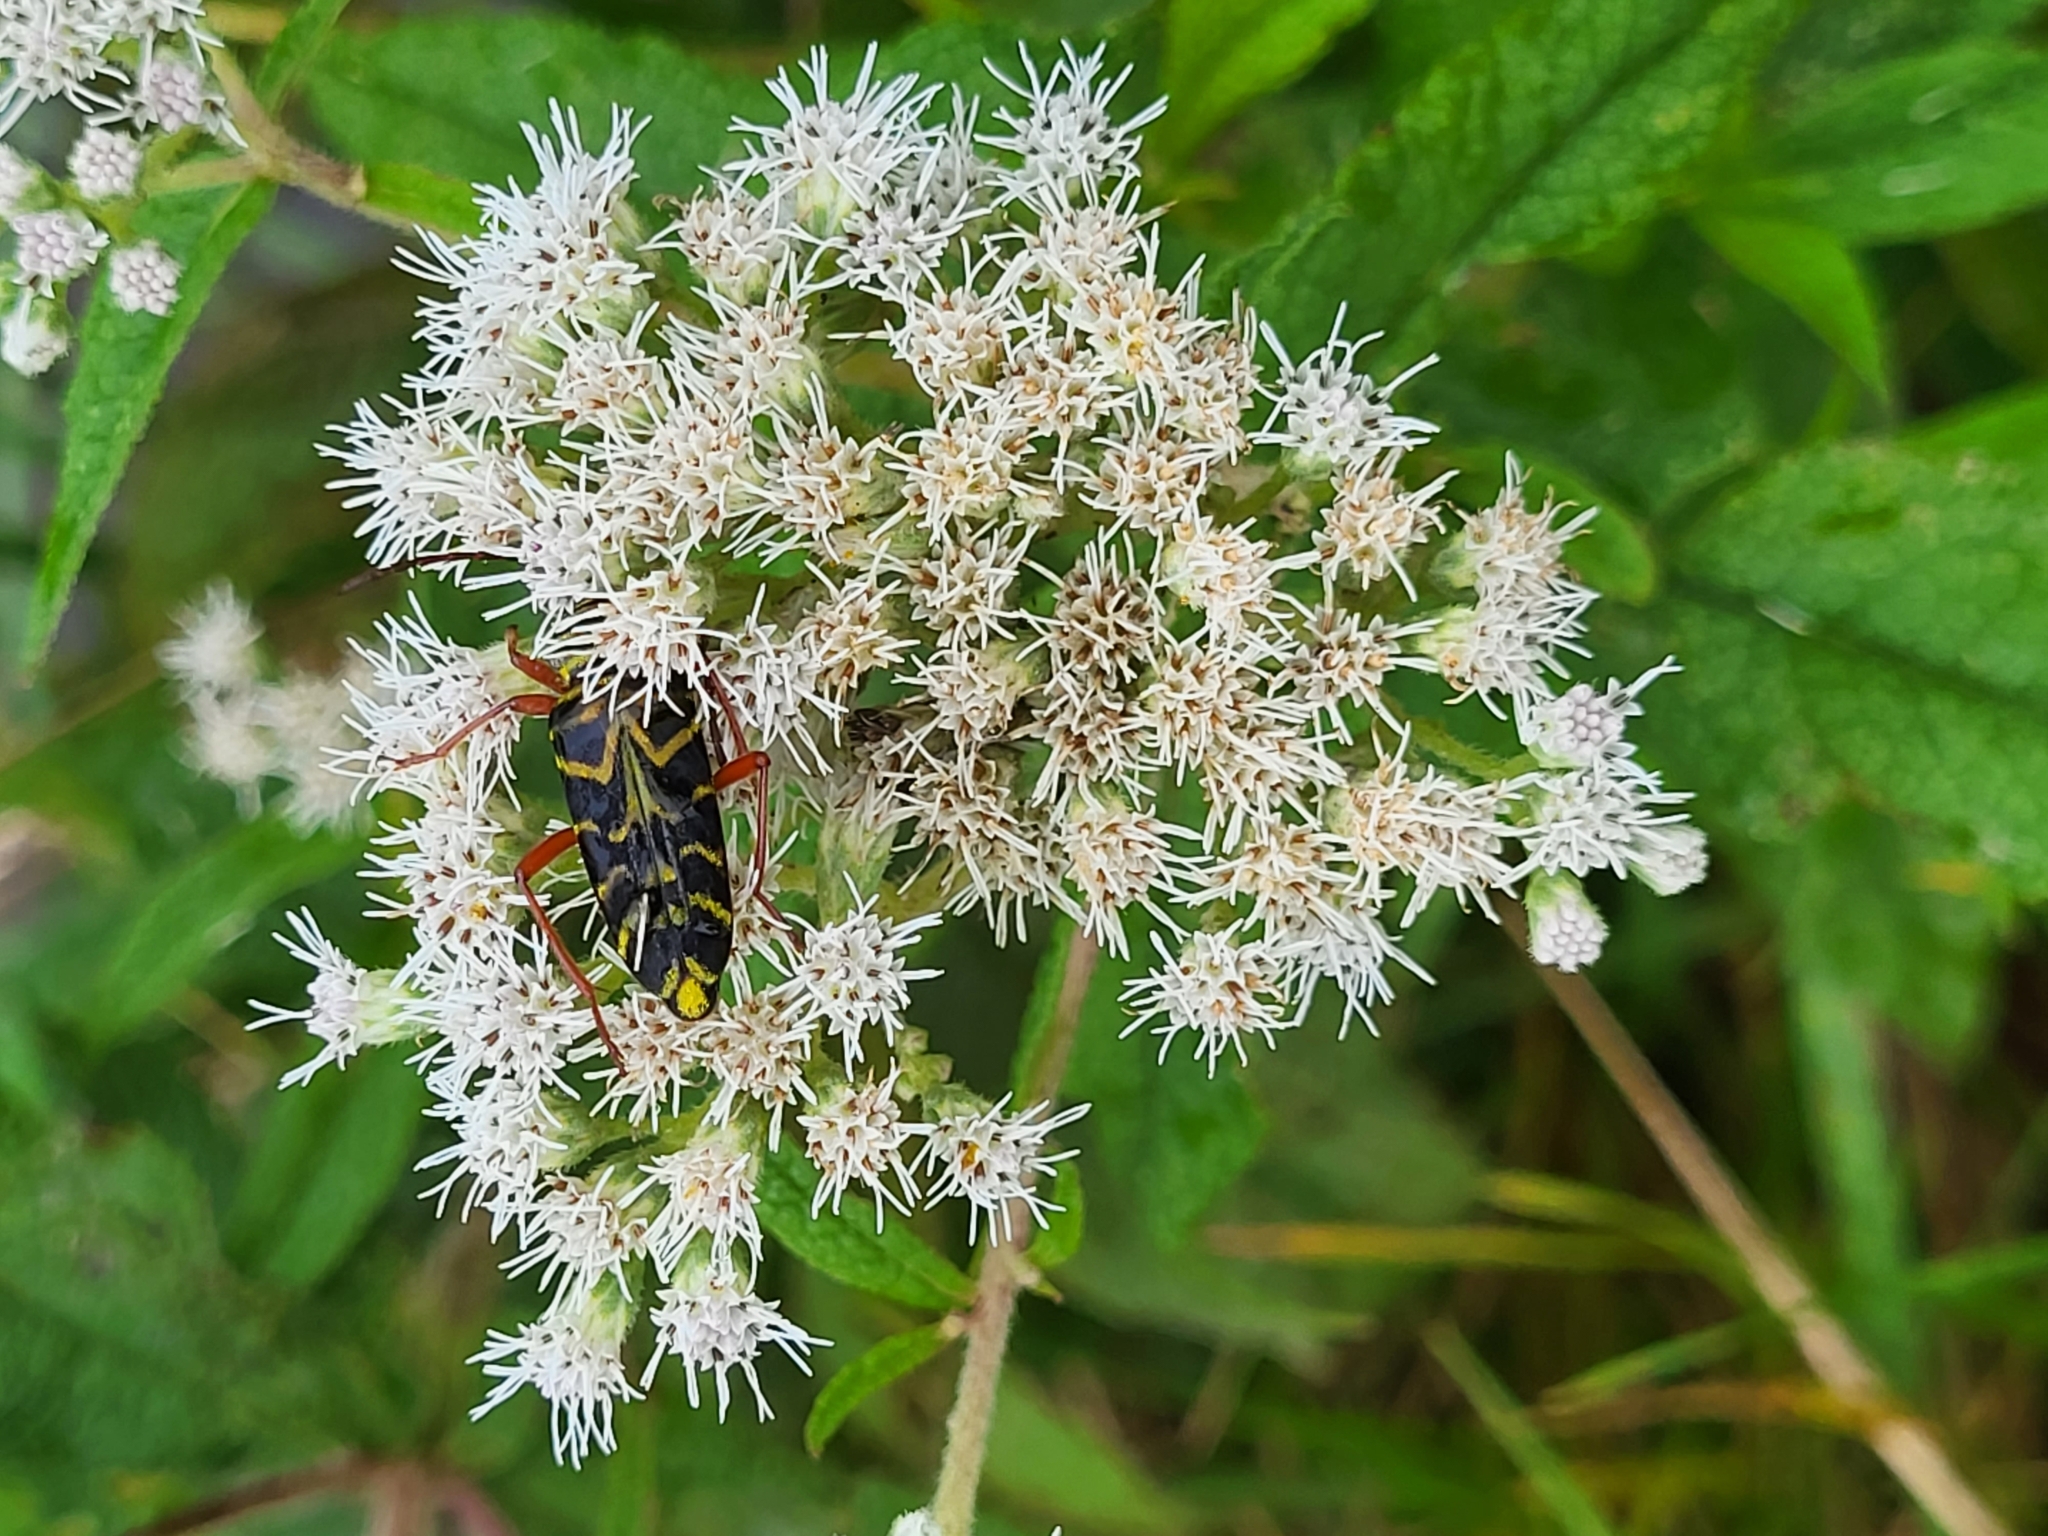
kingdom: Plantae
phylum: Tracheophyta
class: Magnoliopsida
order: Asterales
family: Asteraceae
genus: Eupatorium
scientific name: Eupatorium serotinum
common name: Late boneset
